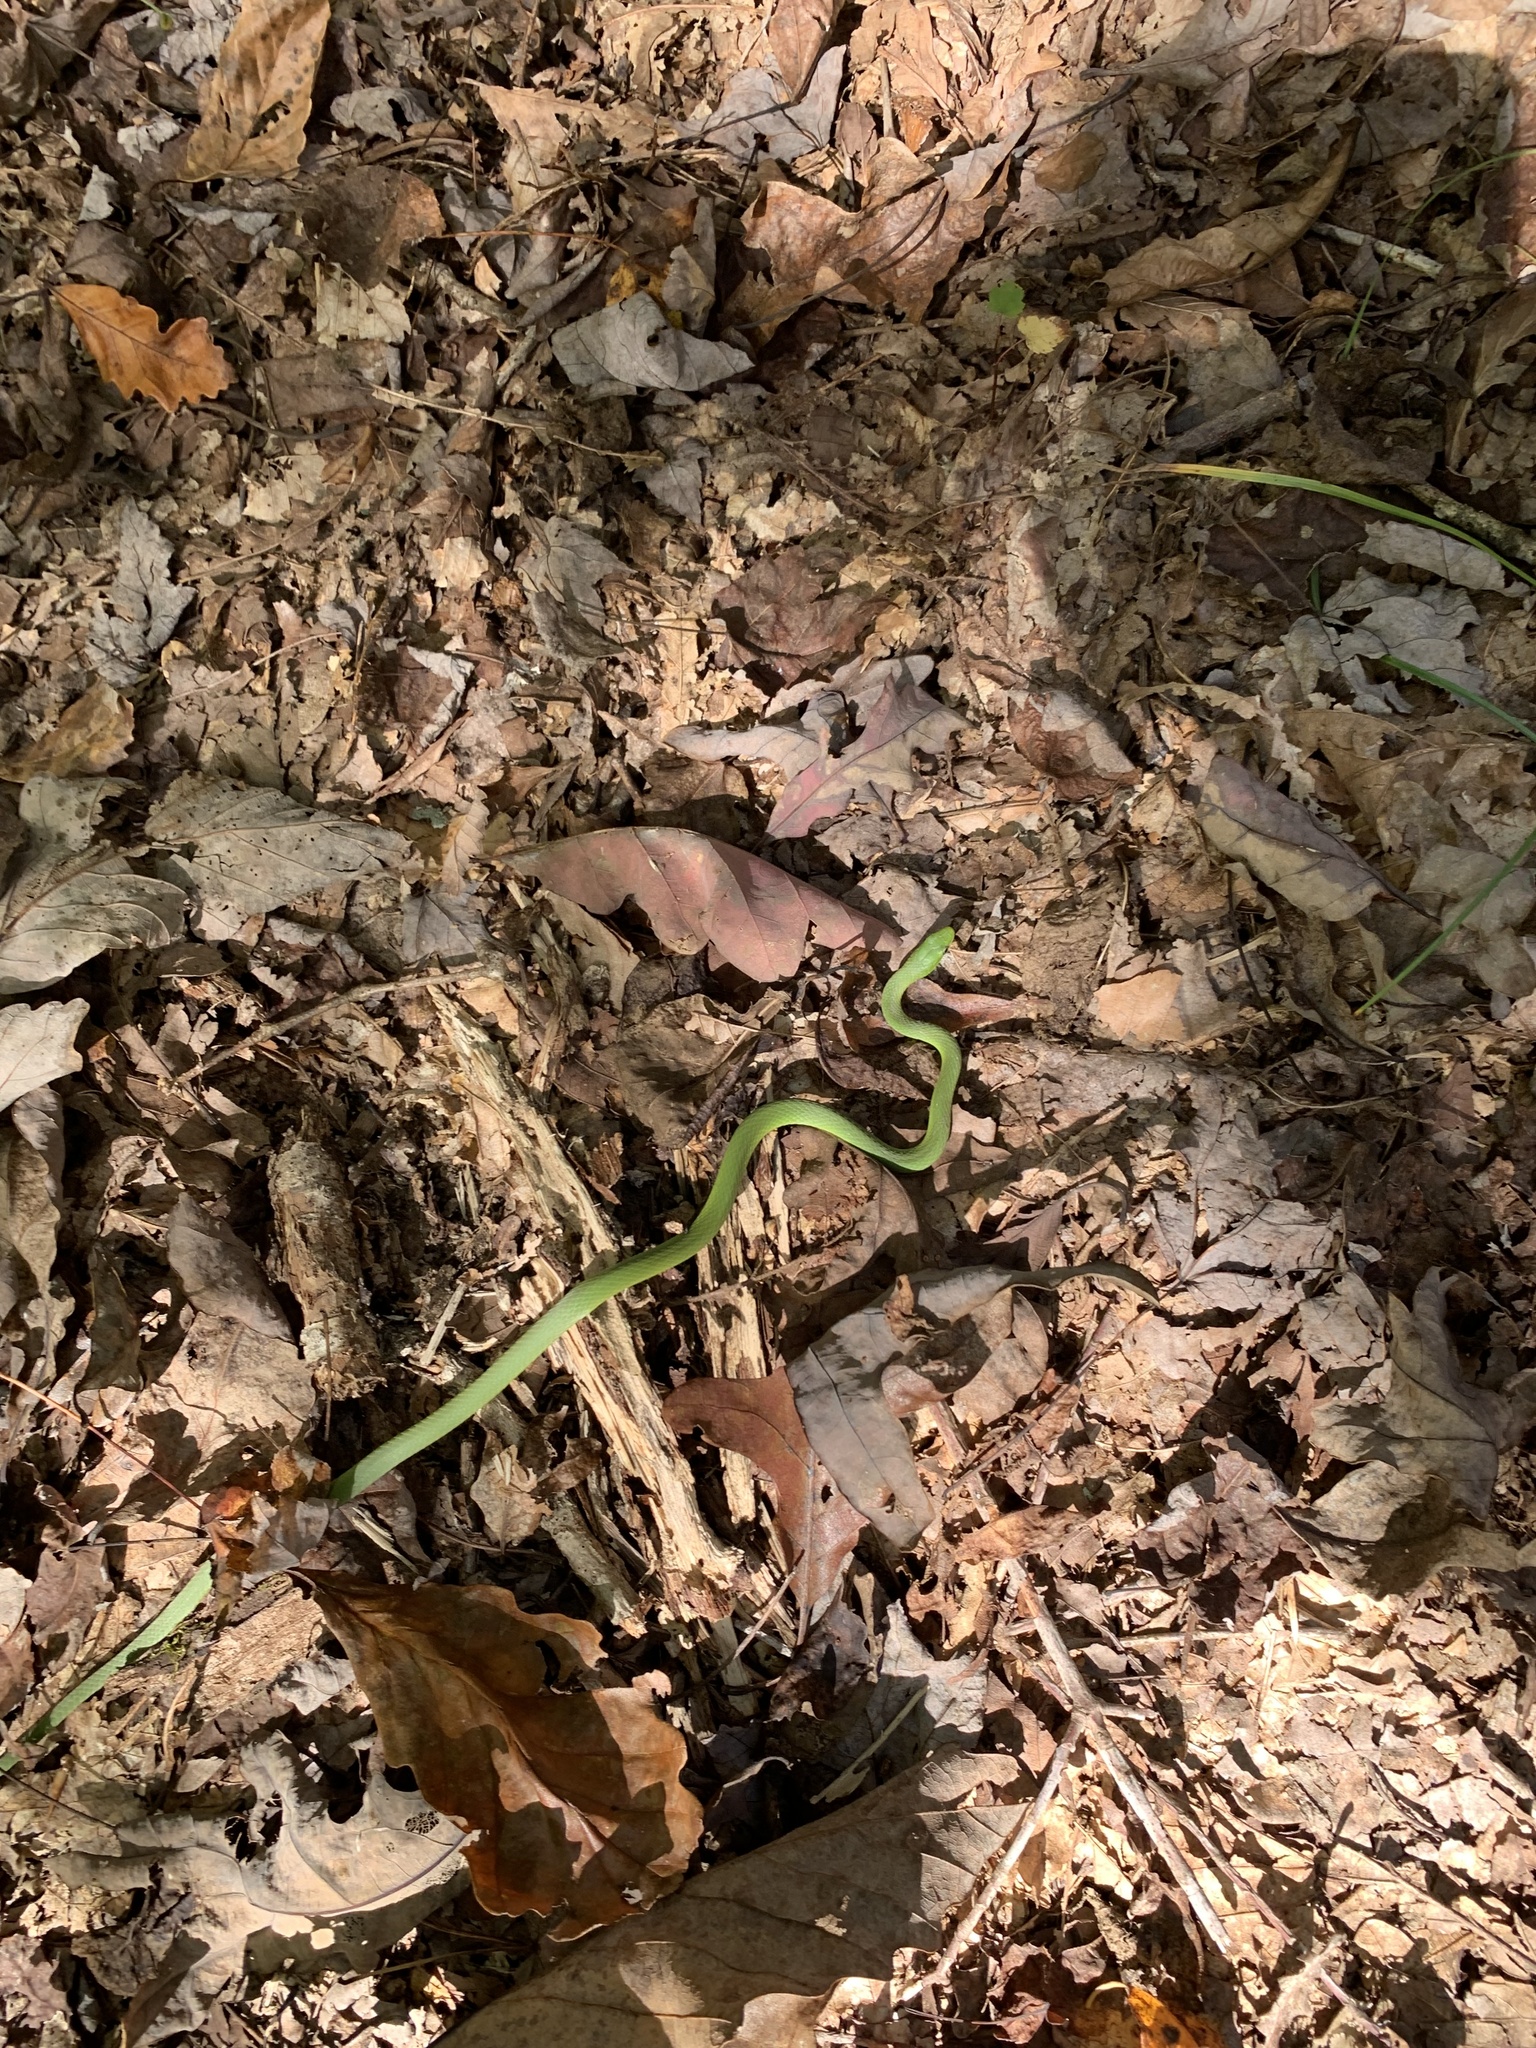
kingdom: Animalia
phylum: Chordata
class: Squamata
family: Colubridae
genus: Opheodrys
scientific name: Opheodrys aestivus
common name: Rough greensnake
